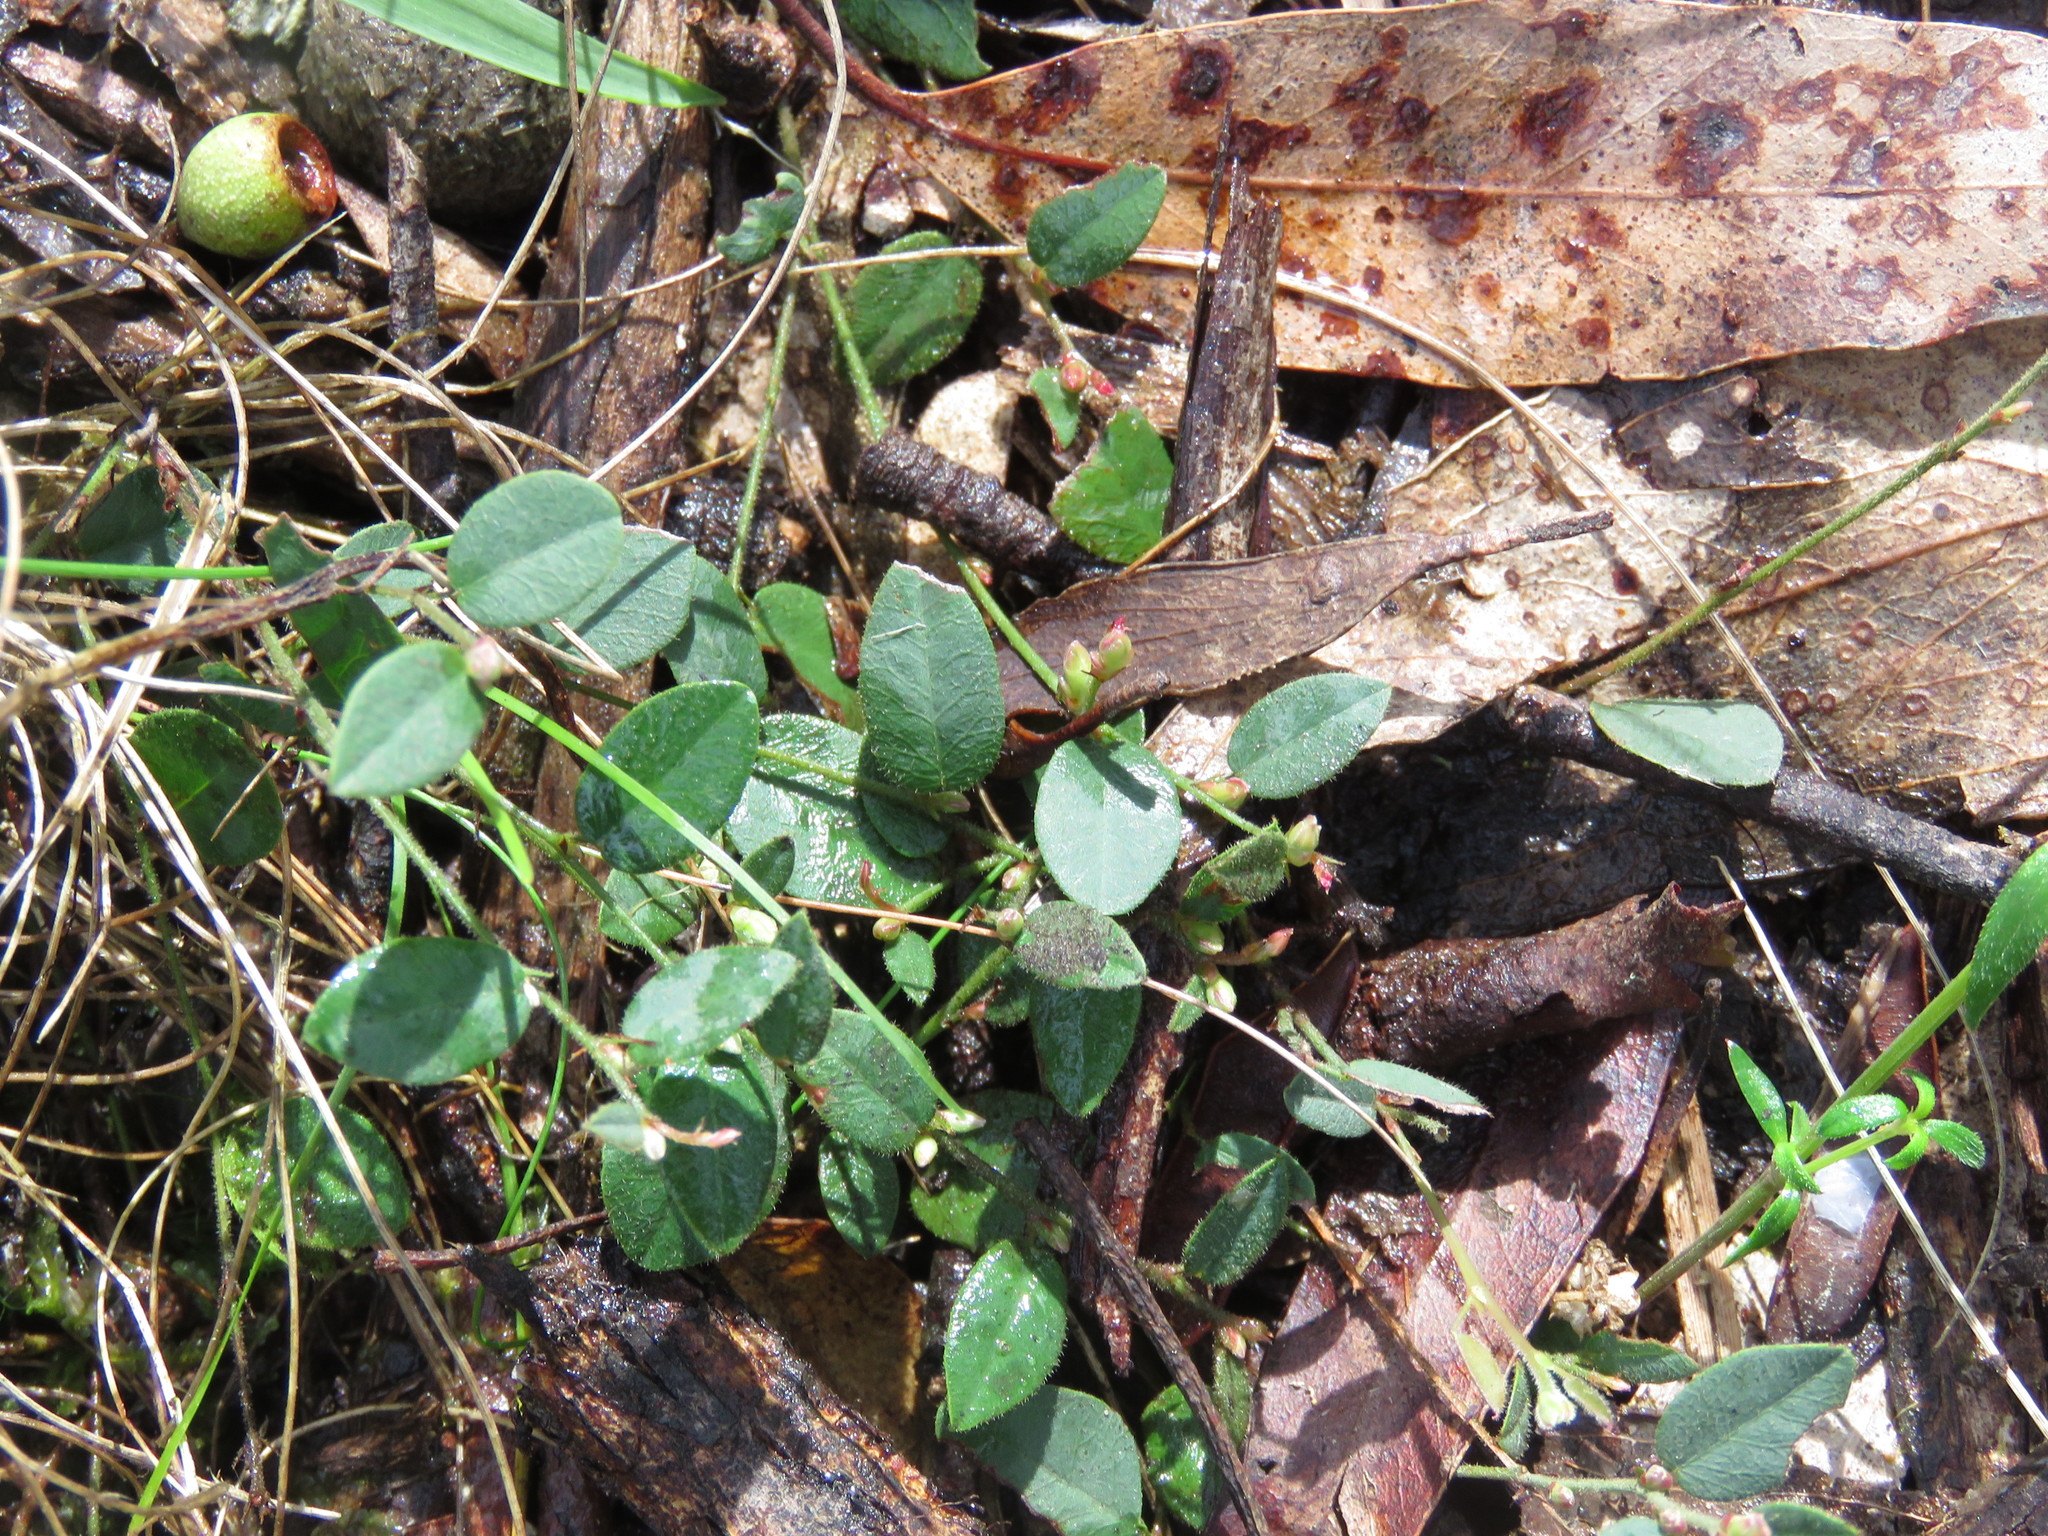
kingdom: Plantae
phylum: Tracheophyta
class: Magnoliopsida
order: Fabales
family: Fabaceae
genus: Bossiaea
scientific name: Bossiaea prostrata
